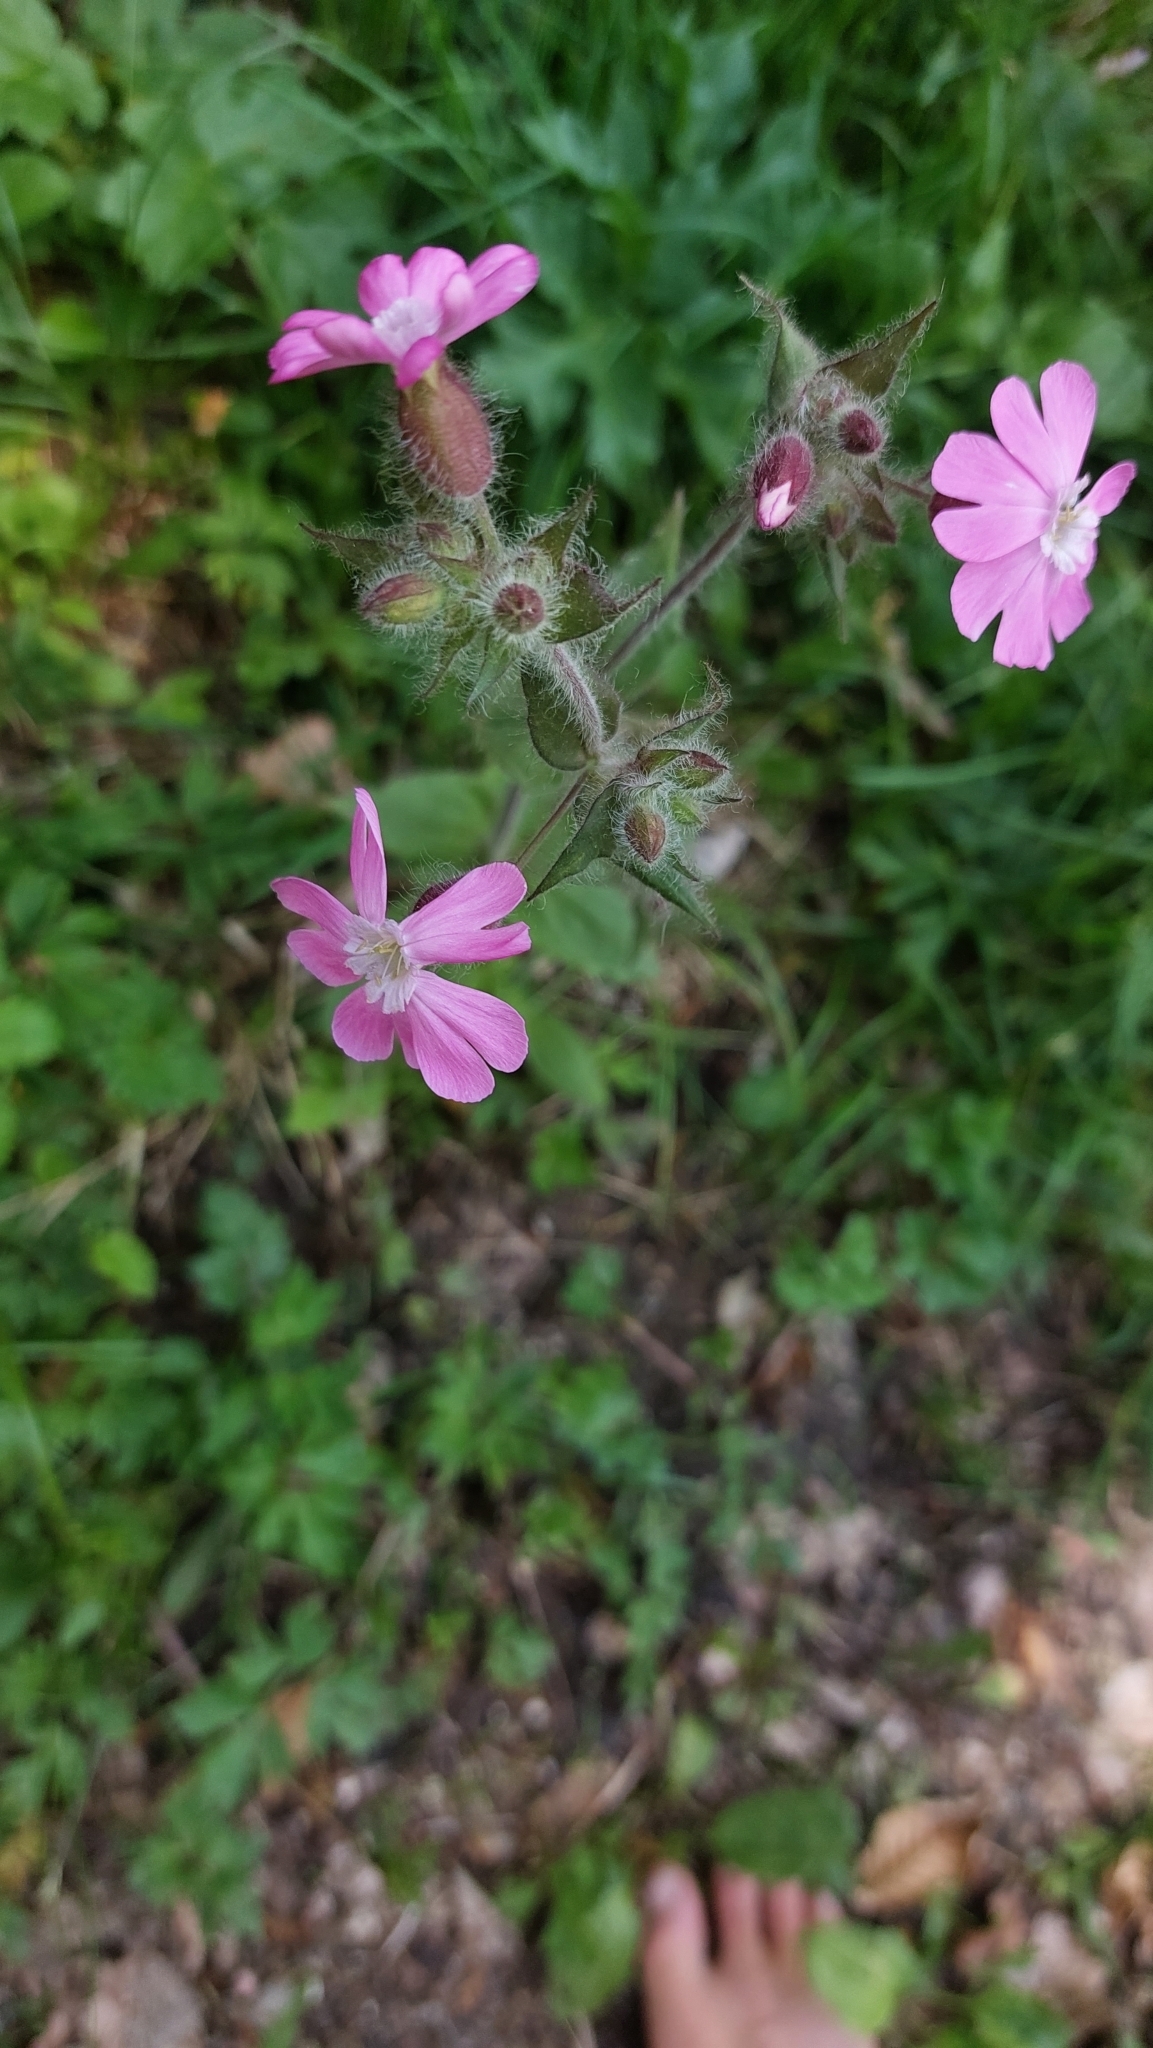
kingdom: Plantae
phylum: Tracheophyta
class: Magnoliopsida
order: Caryophyllales
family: Caryophyllaceae
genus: Silene
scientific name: Silene dioica
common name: Red campion
